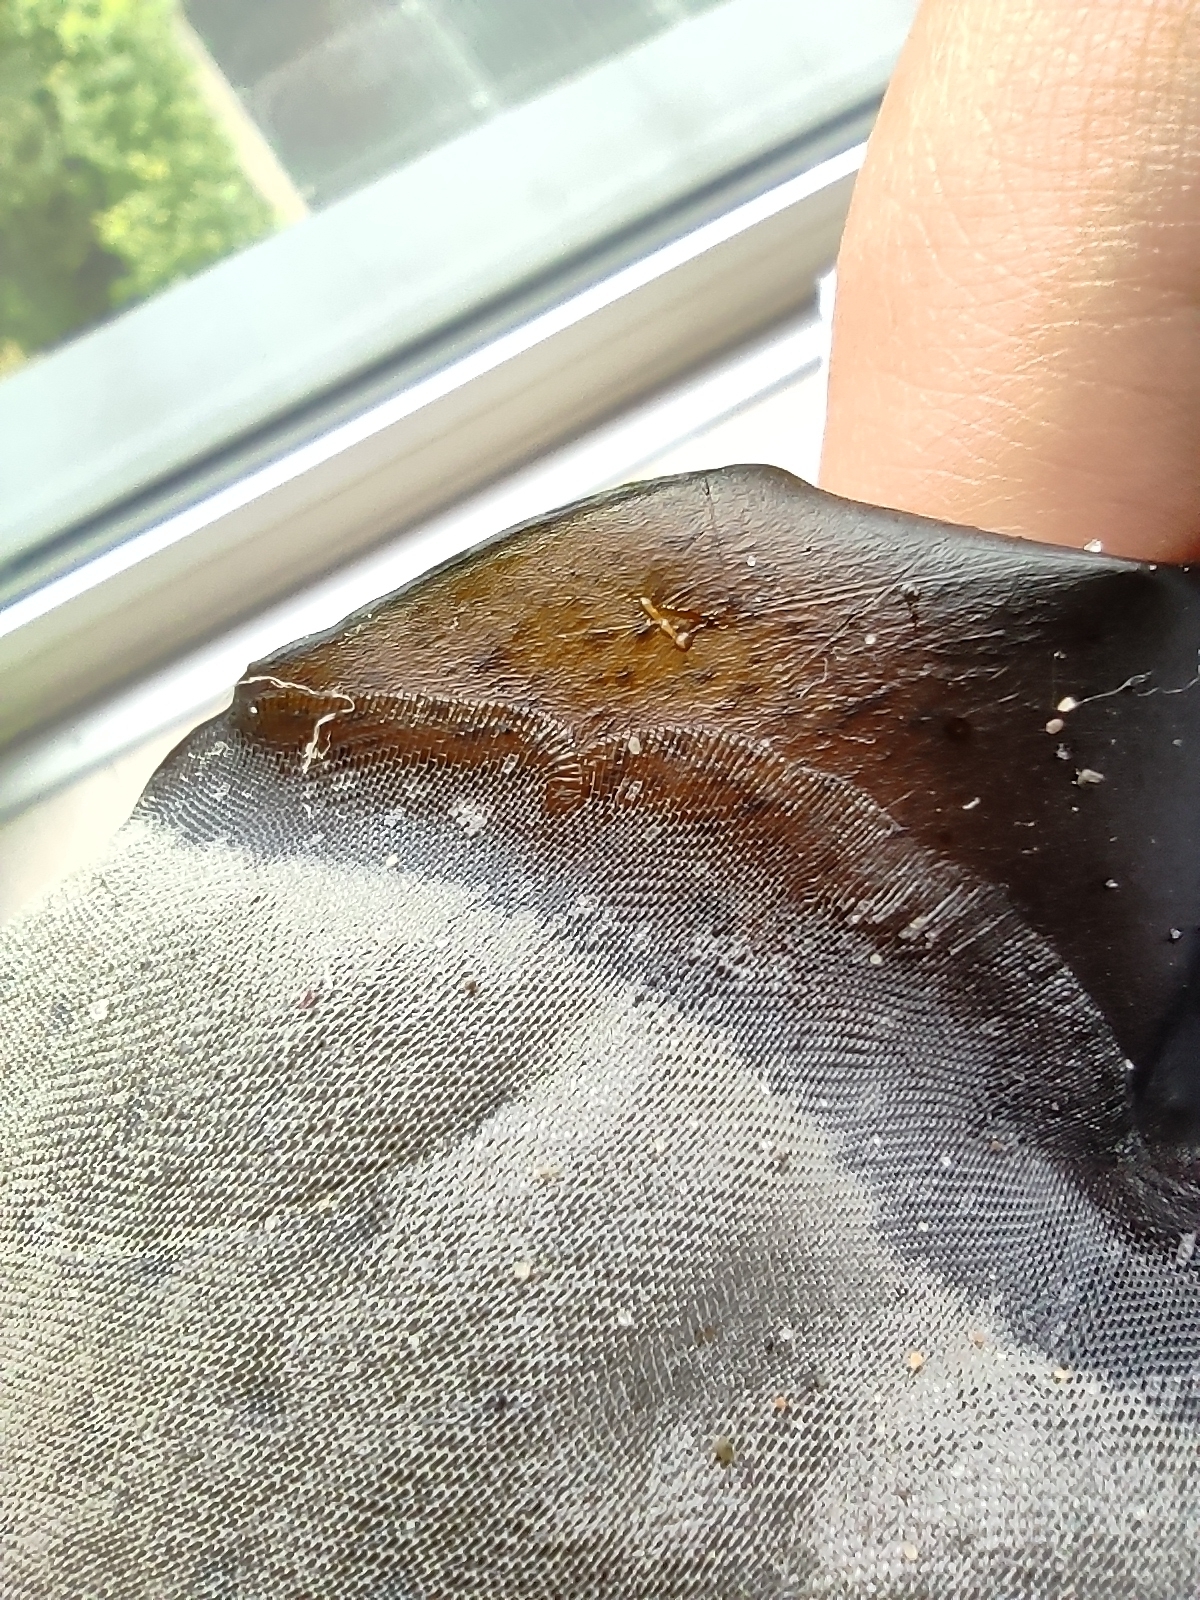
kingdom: Animalia
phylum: Bryozoa
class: Gymnolaemata
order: Cheilostomatida
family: Membraniporidae
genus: Membranipora
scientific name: Membranipora membranacea
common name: Sea mat
